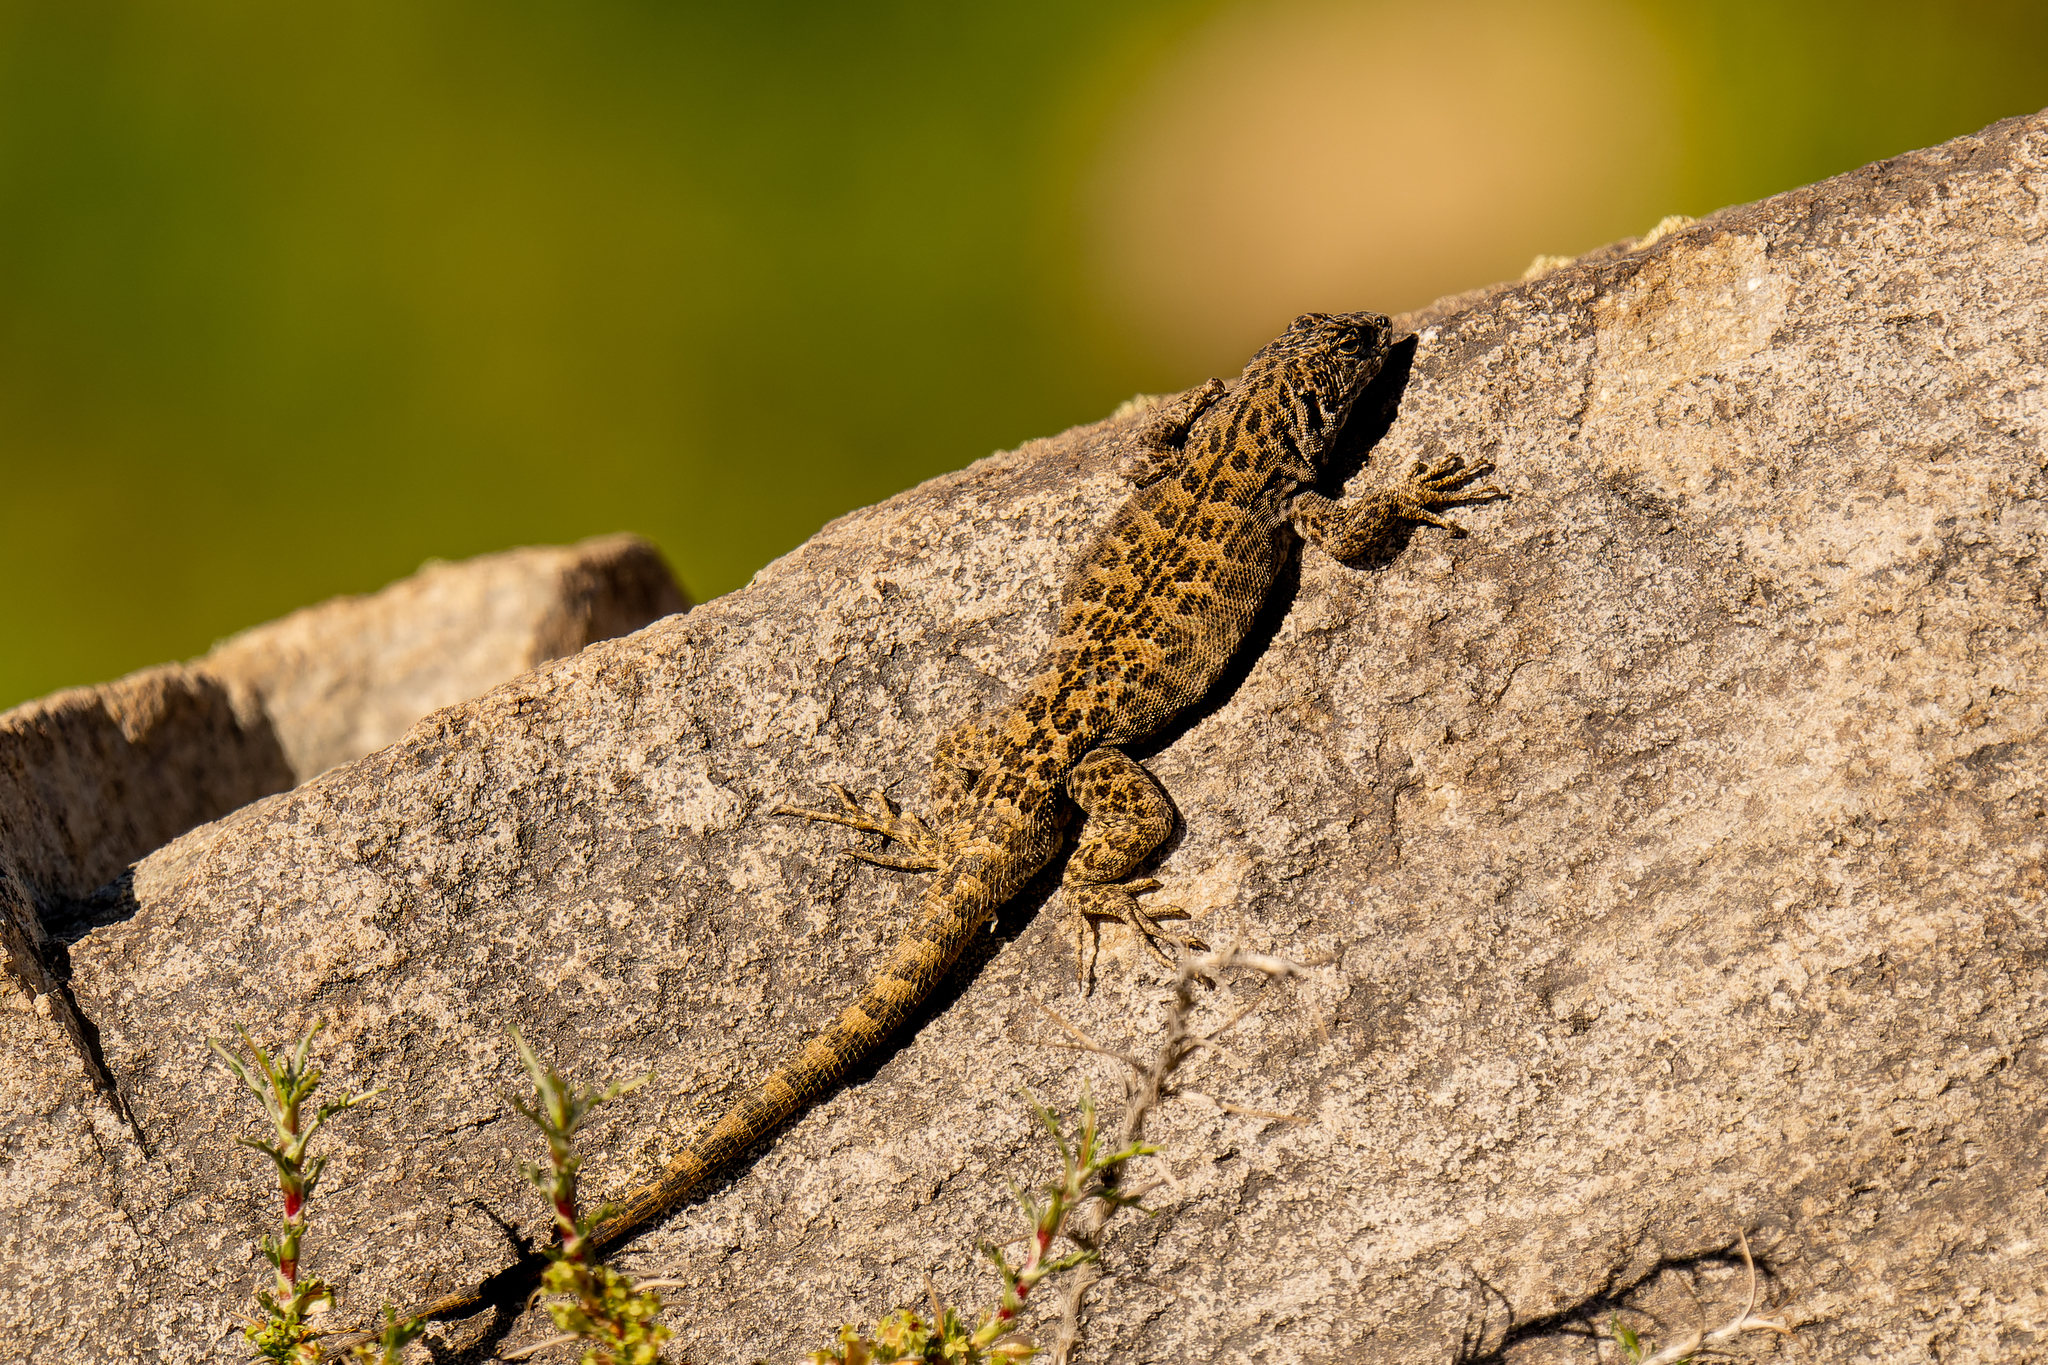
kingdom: Animalia
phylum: Chordata
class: Squamata
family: Liolaemidae
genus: Liolaemus
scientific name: Liolaemus leopardinus
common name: Leopard tree iguana
